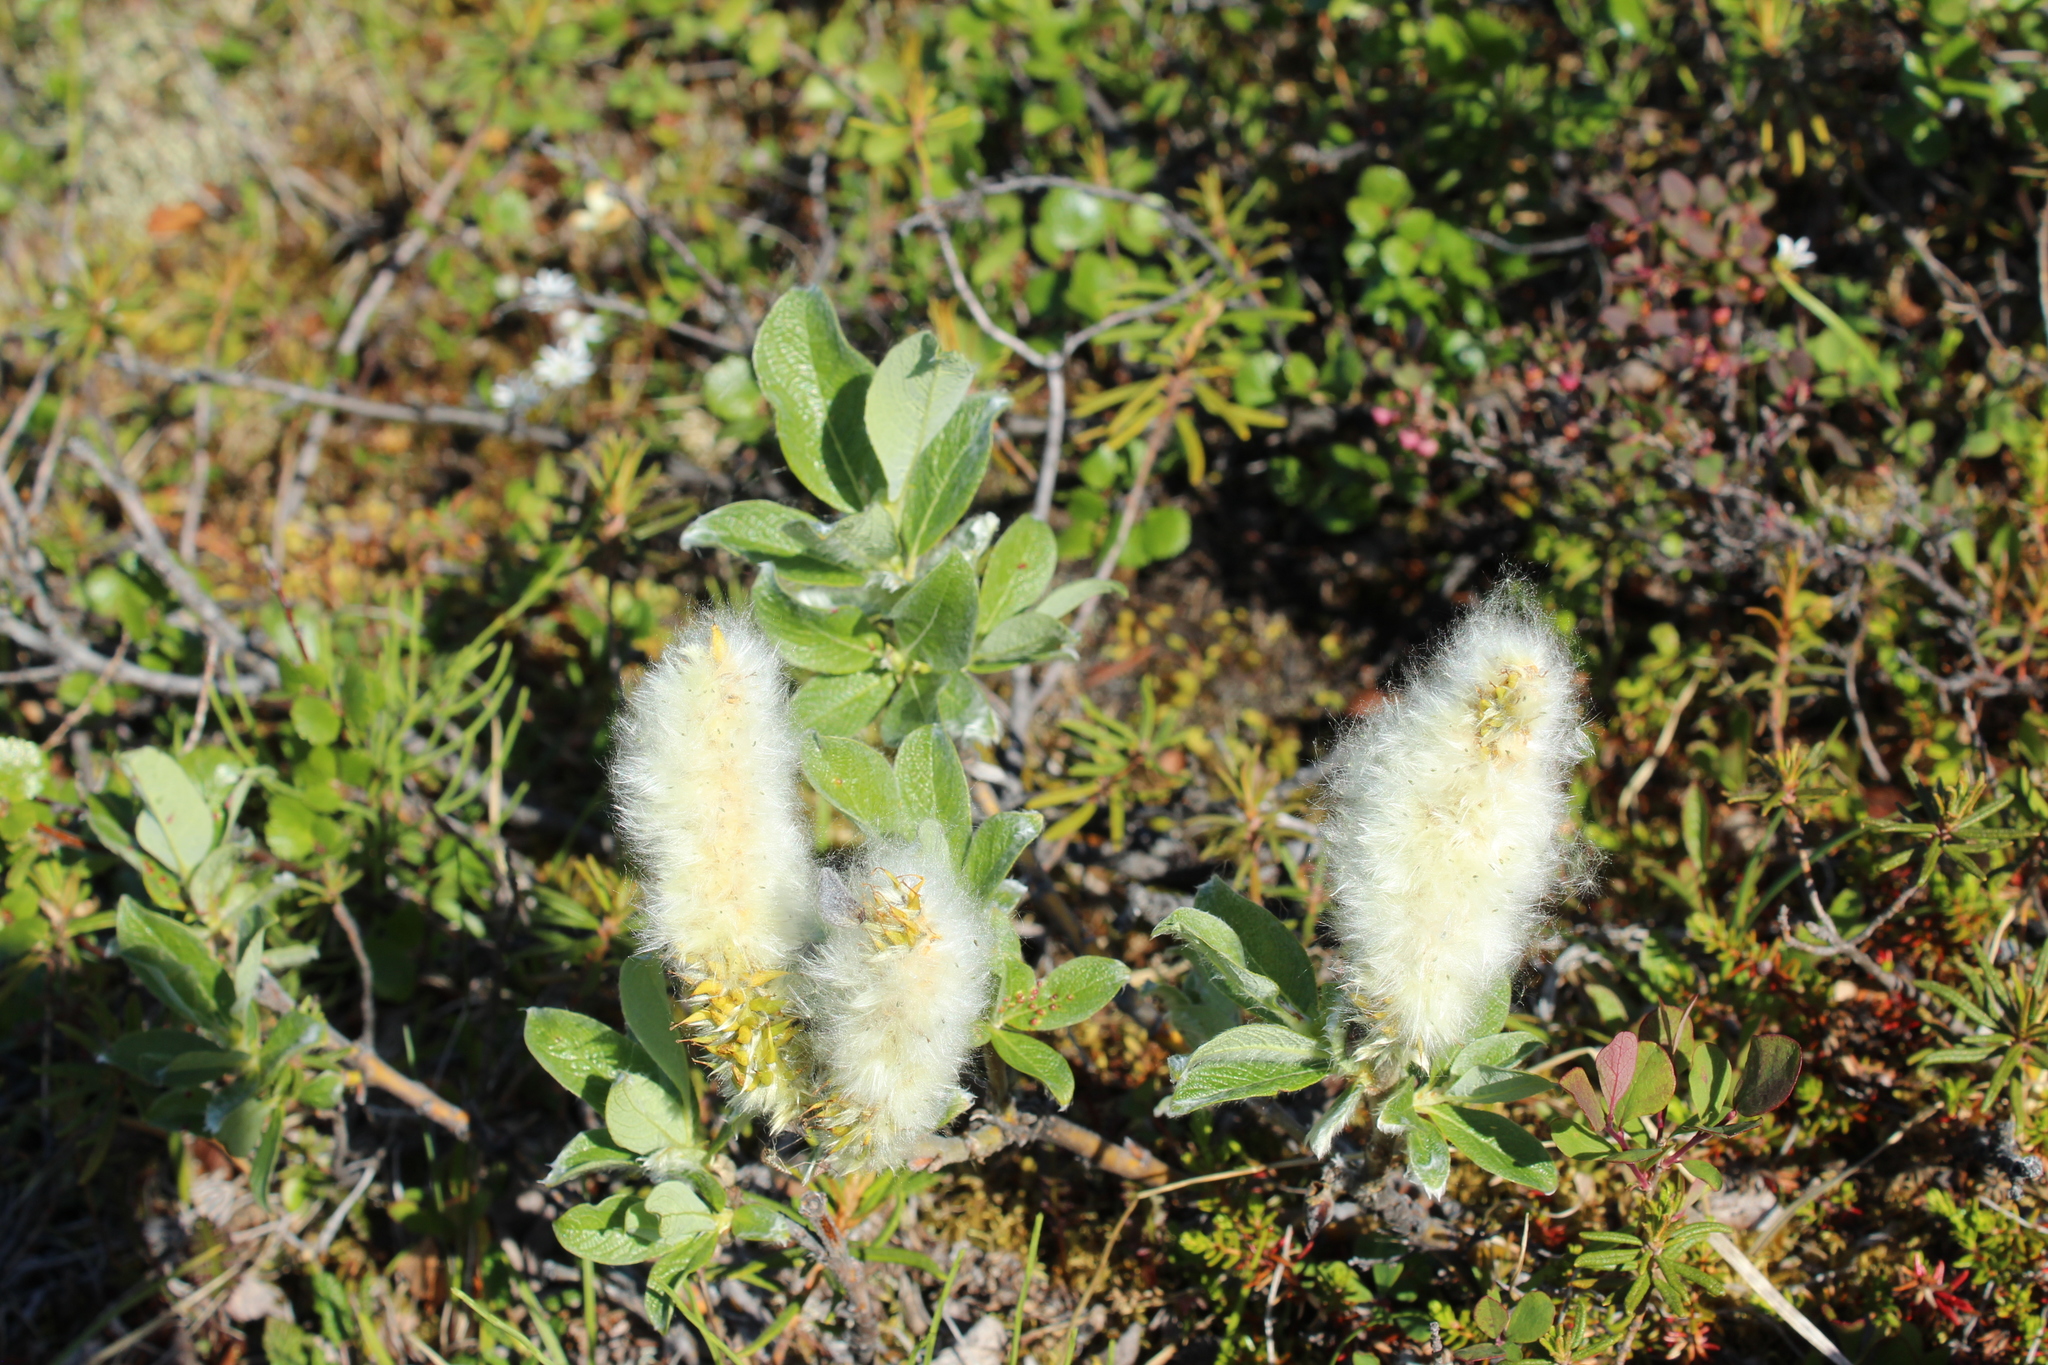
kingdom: Plantae
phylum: Tracheophyta
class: Magnoliopsida
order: Malpighiales
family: Salicaceae
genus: Salix
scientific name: Salix recurvigemmata
